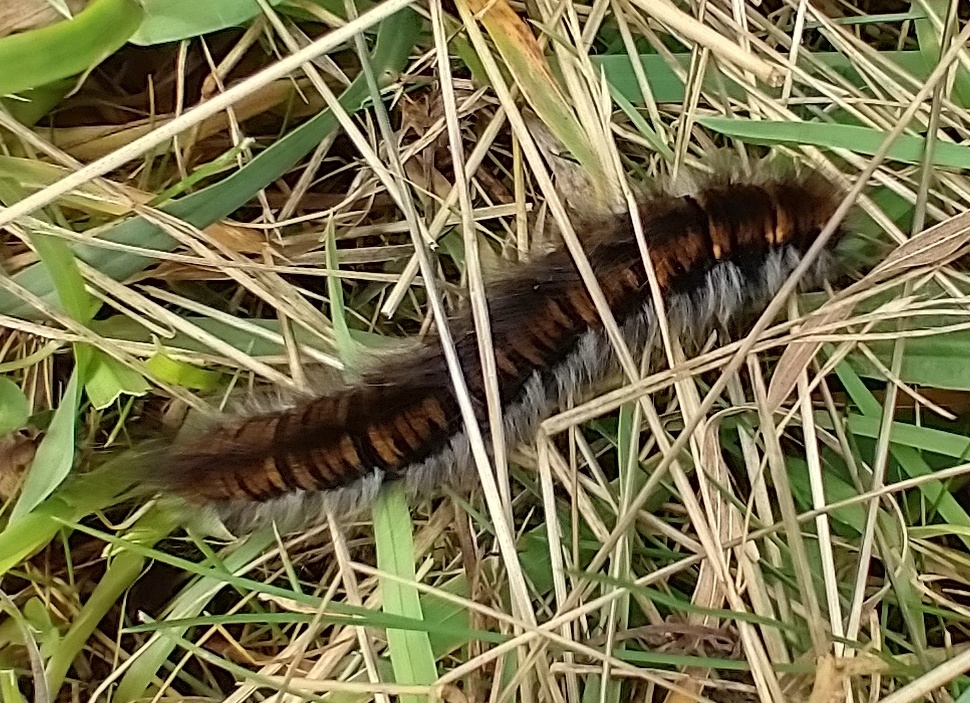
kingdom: Animalia
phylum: Arthropoda
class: Insecta
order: Lepidoptera
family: Lasiocampidae
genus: Macrothylacia
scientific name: Macrothylacia rubi
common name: Fox moth
